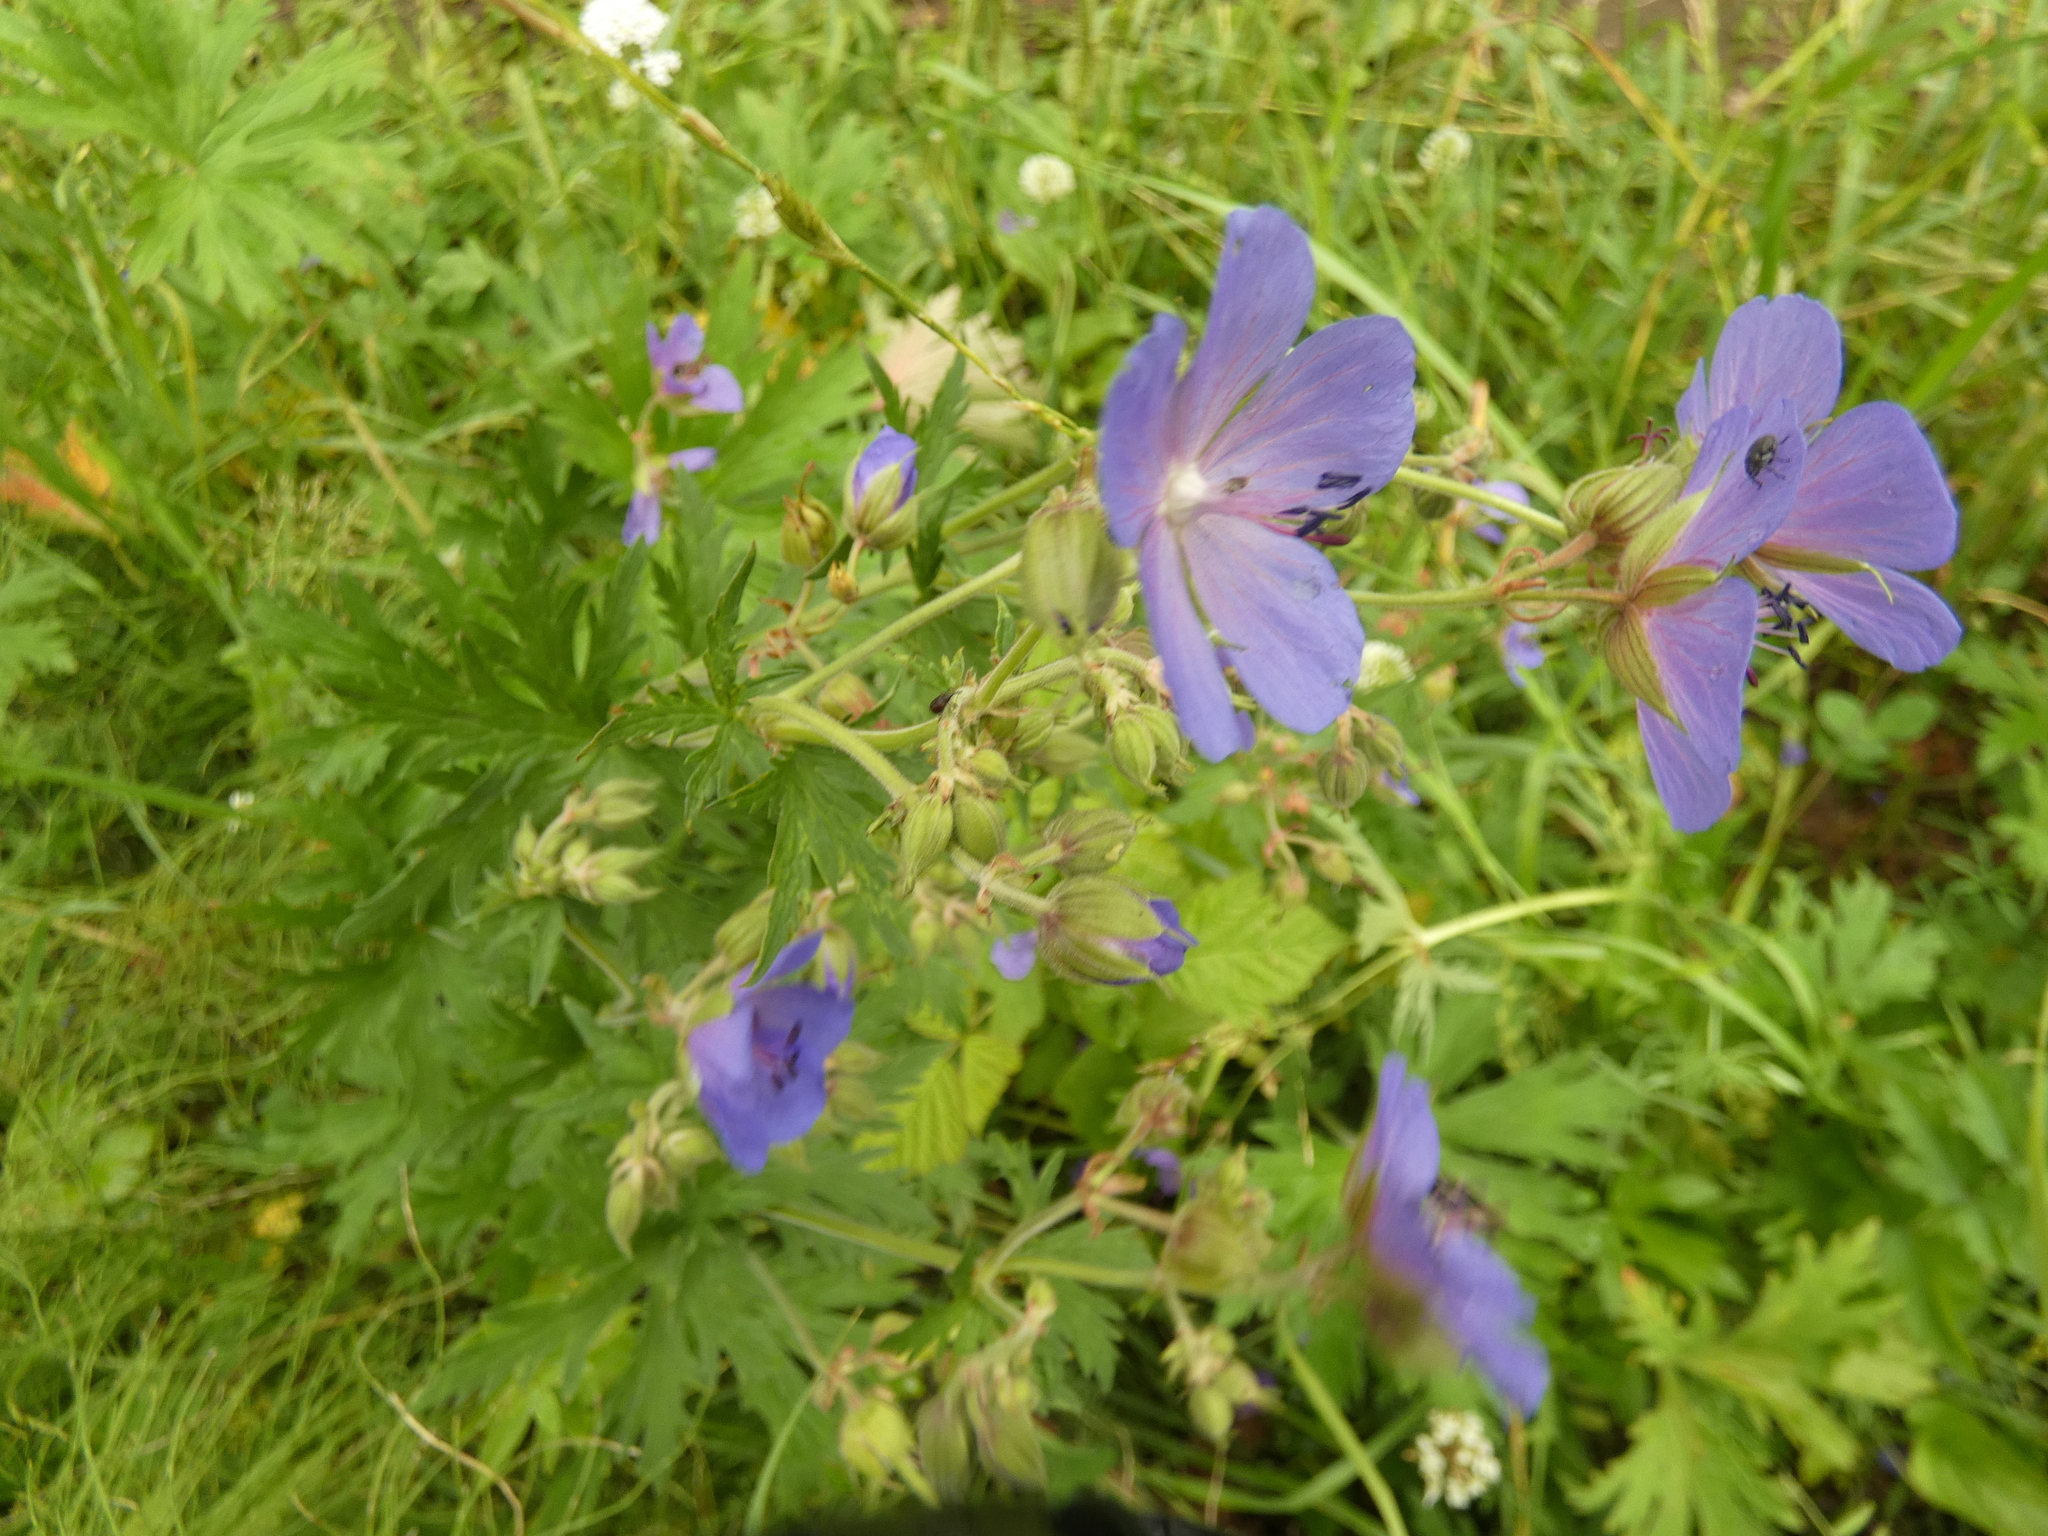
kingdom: Plantae
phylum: Tracheophyta
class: Magnoliopsida
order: Geraniales
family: Geraniaceae
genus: Geranium
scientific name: Geranium pratense
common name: Meadow crane's-bill
